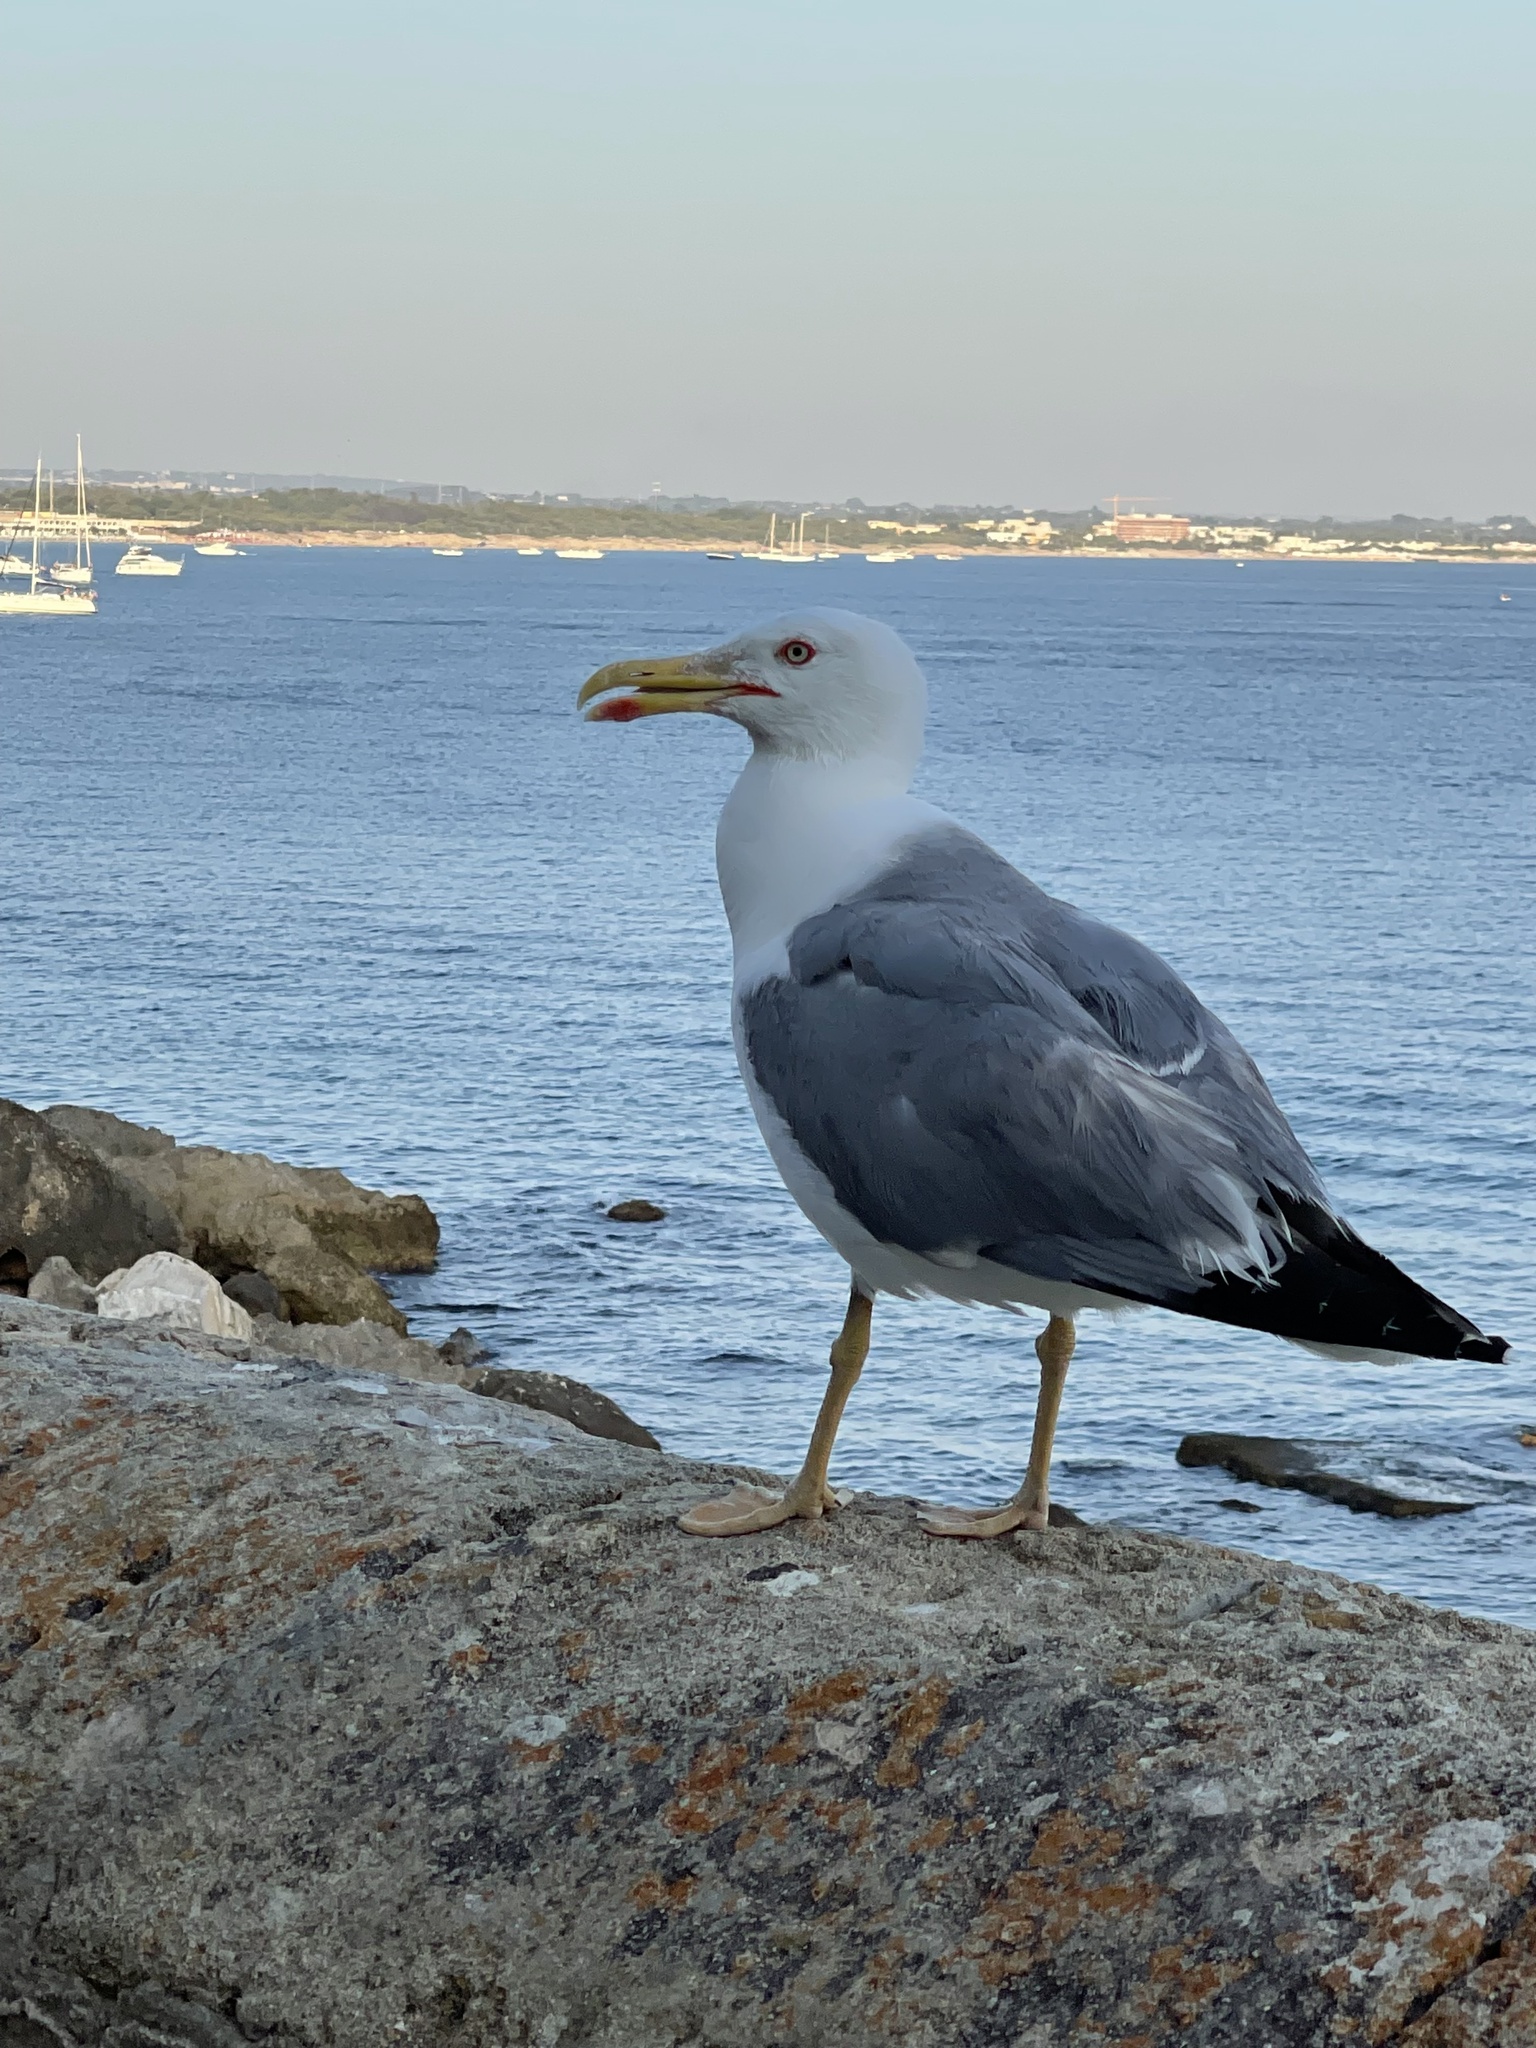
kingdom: Animalia
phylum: Chordata
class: Aves
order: Charadriiformes
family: Laridae
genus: Larus
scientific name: Larus michahellis
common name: Yellow-legged gull
